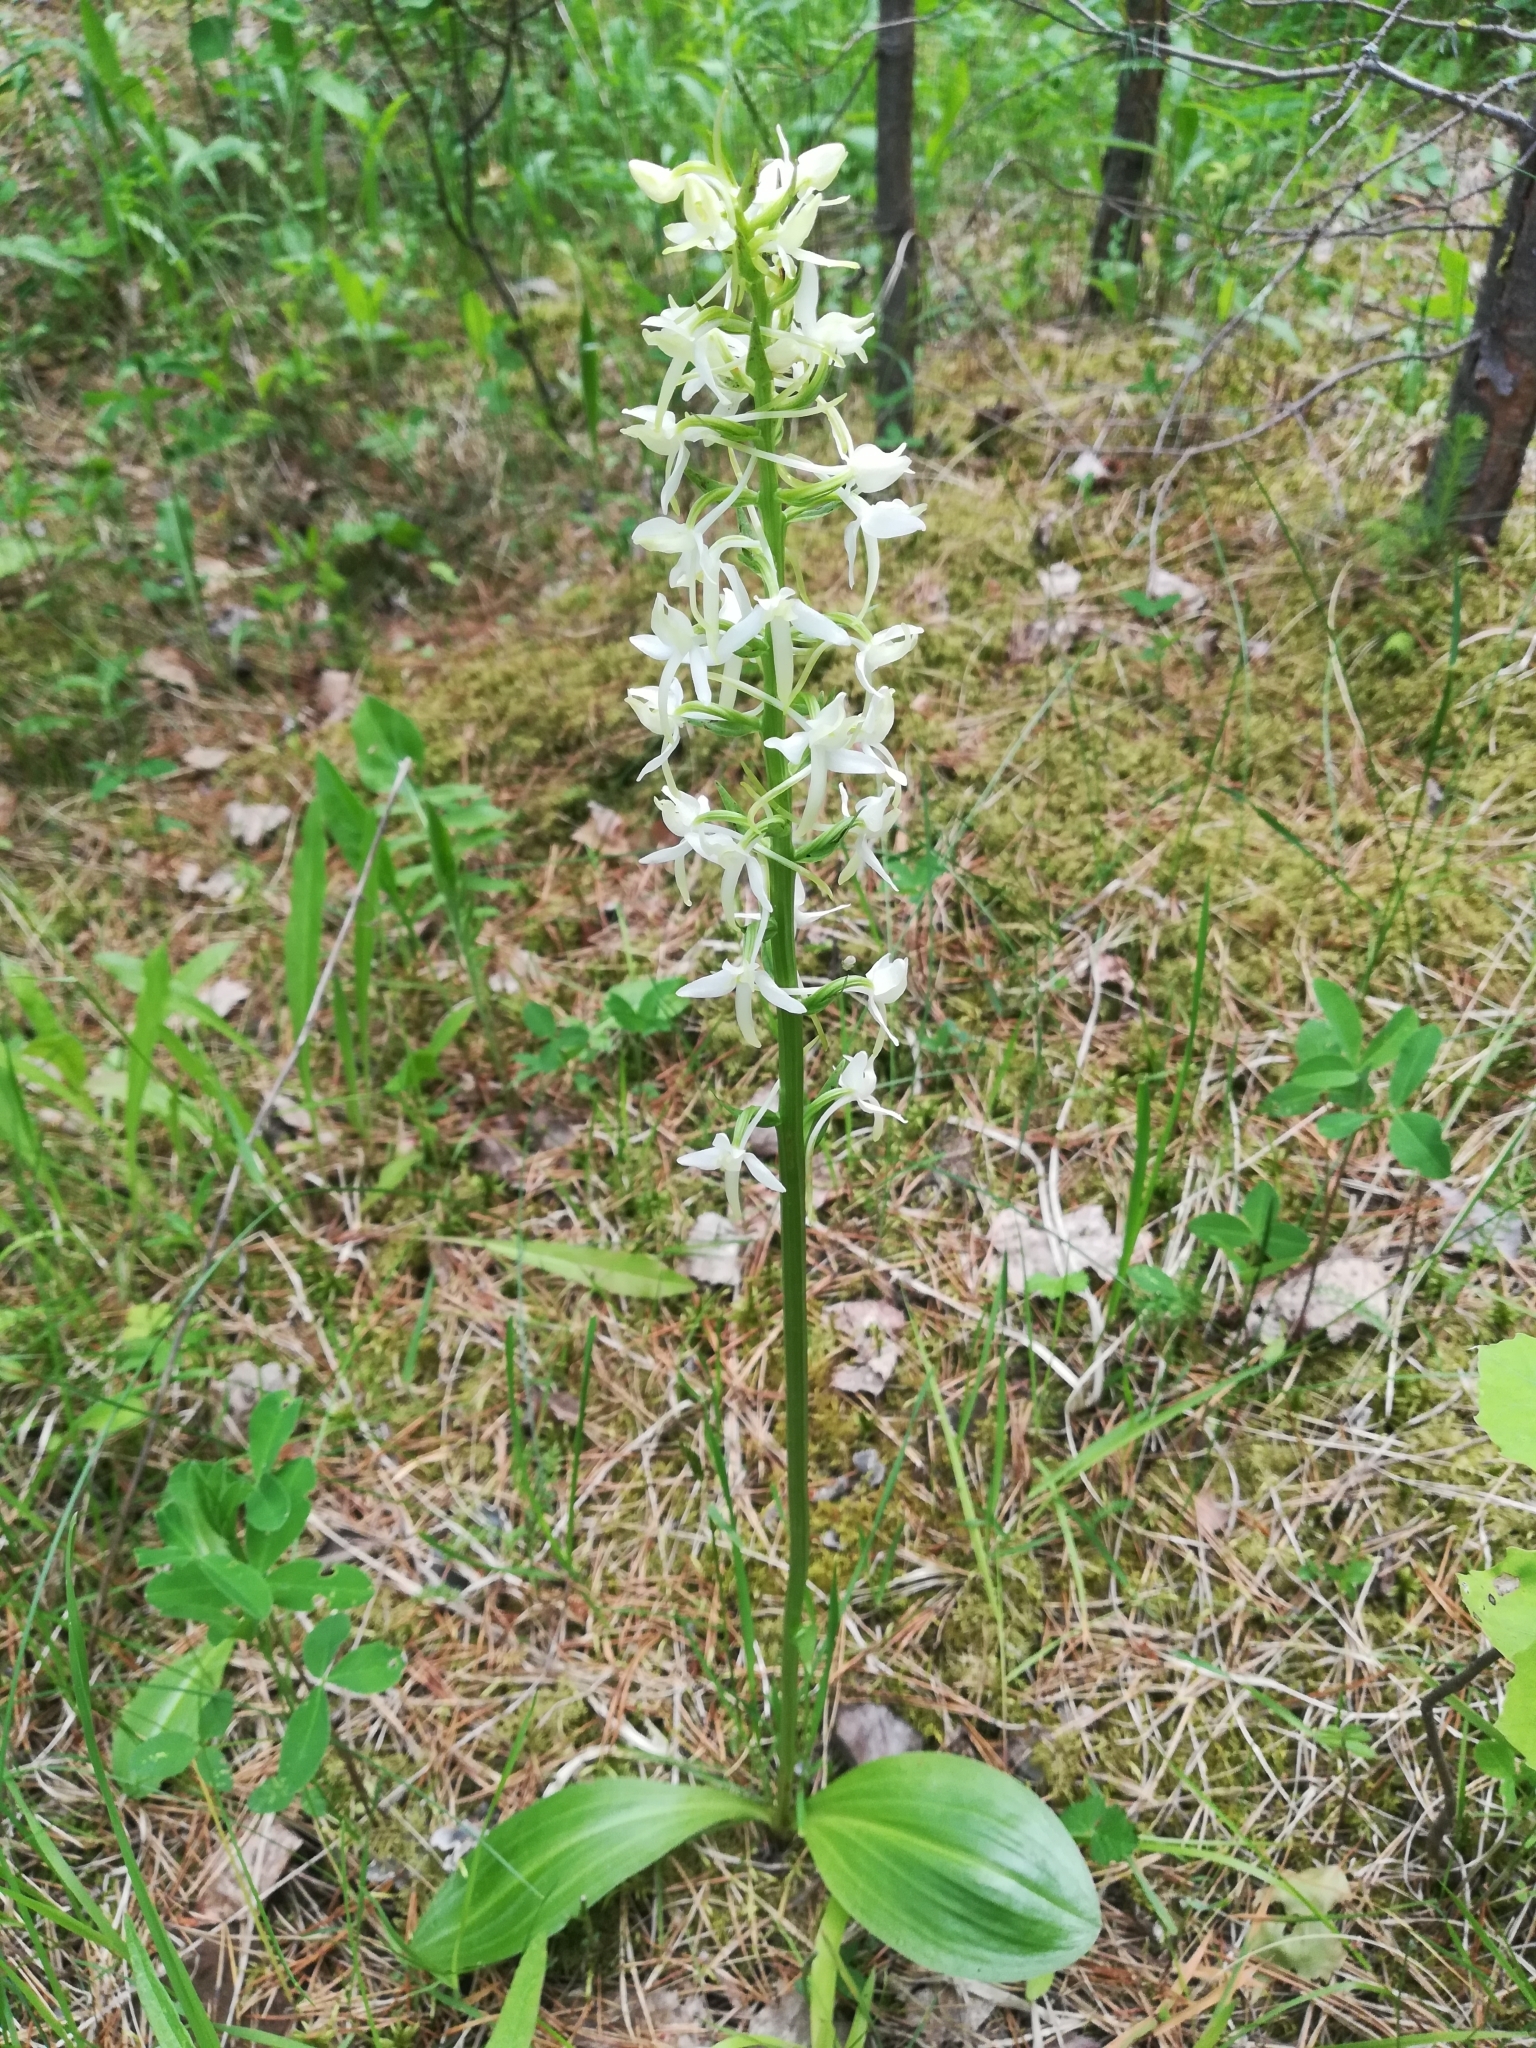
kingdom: Plantae
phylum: Tracheophyta
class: Liliopsida
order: Asparagales
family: Orchidaceae
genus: Platanthera
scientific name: Platanthera bifolia
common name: Lesser butterfly-orchid
